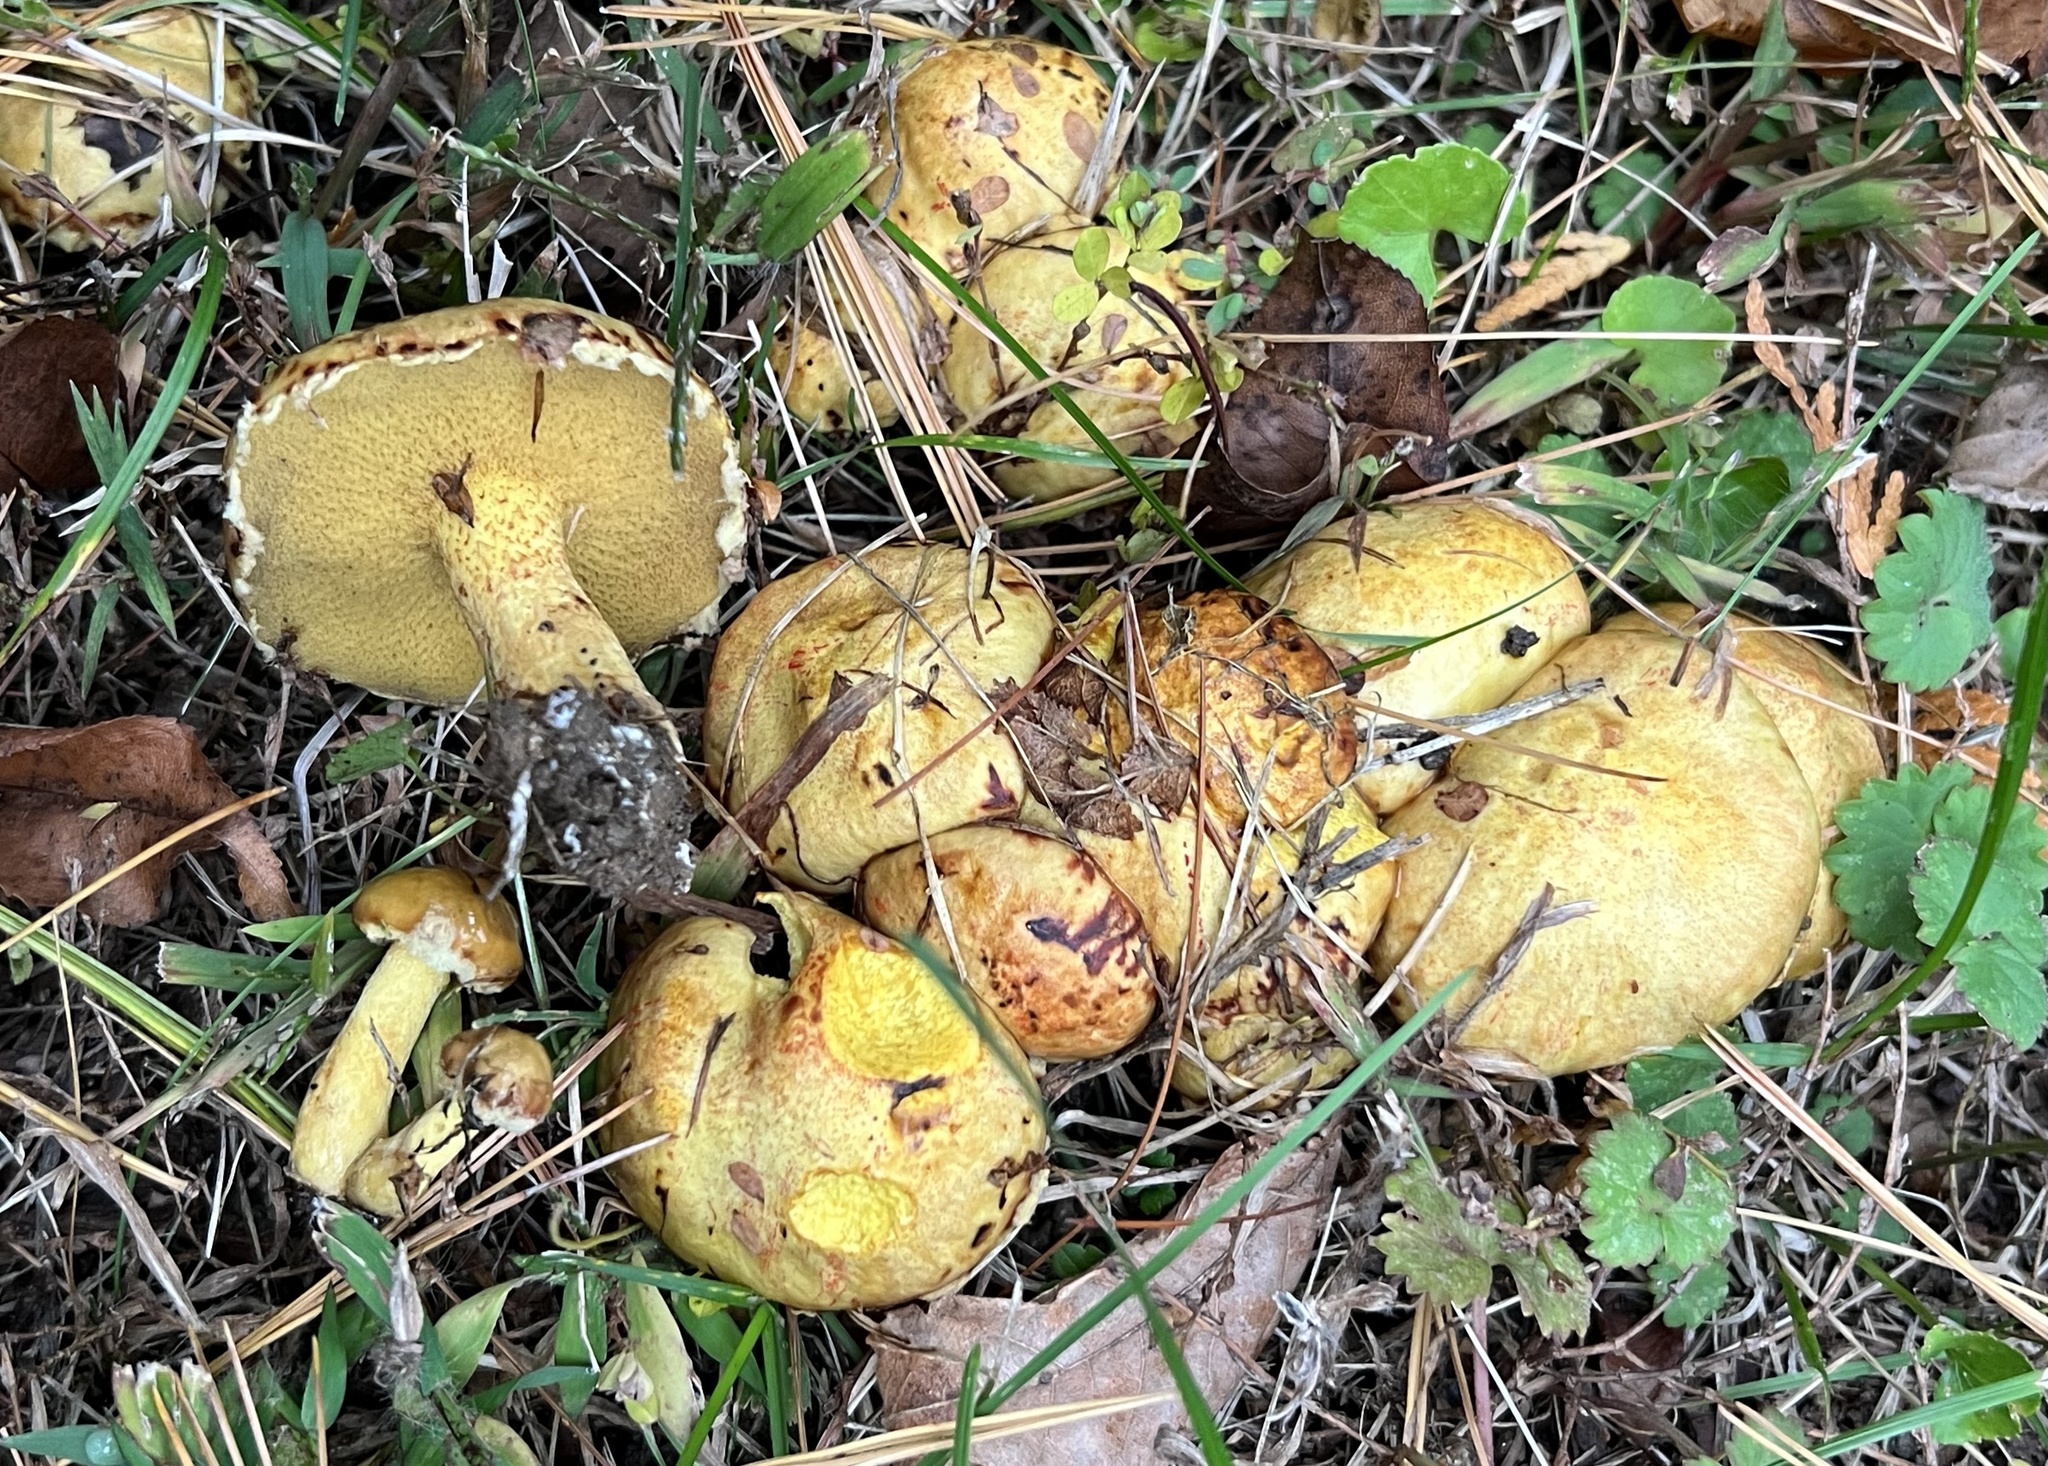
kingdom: Fungi
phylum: Basidiomycota
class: Agaricomycetes
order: Boletales
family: Suillaceae
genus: Suillus
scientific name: Suillus americanus
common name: Chicken fat mushroom
